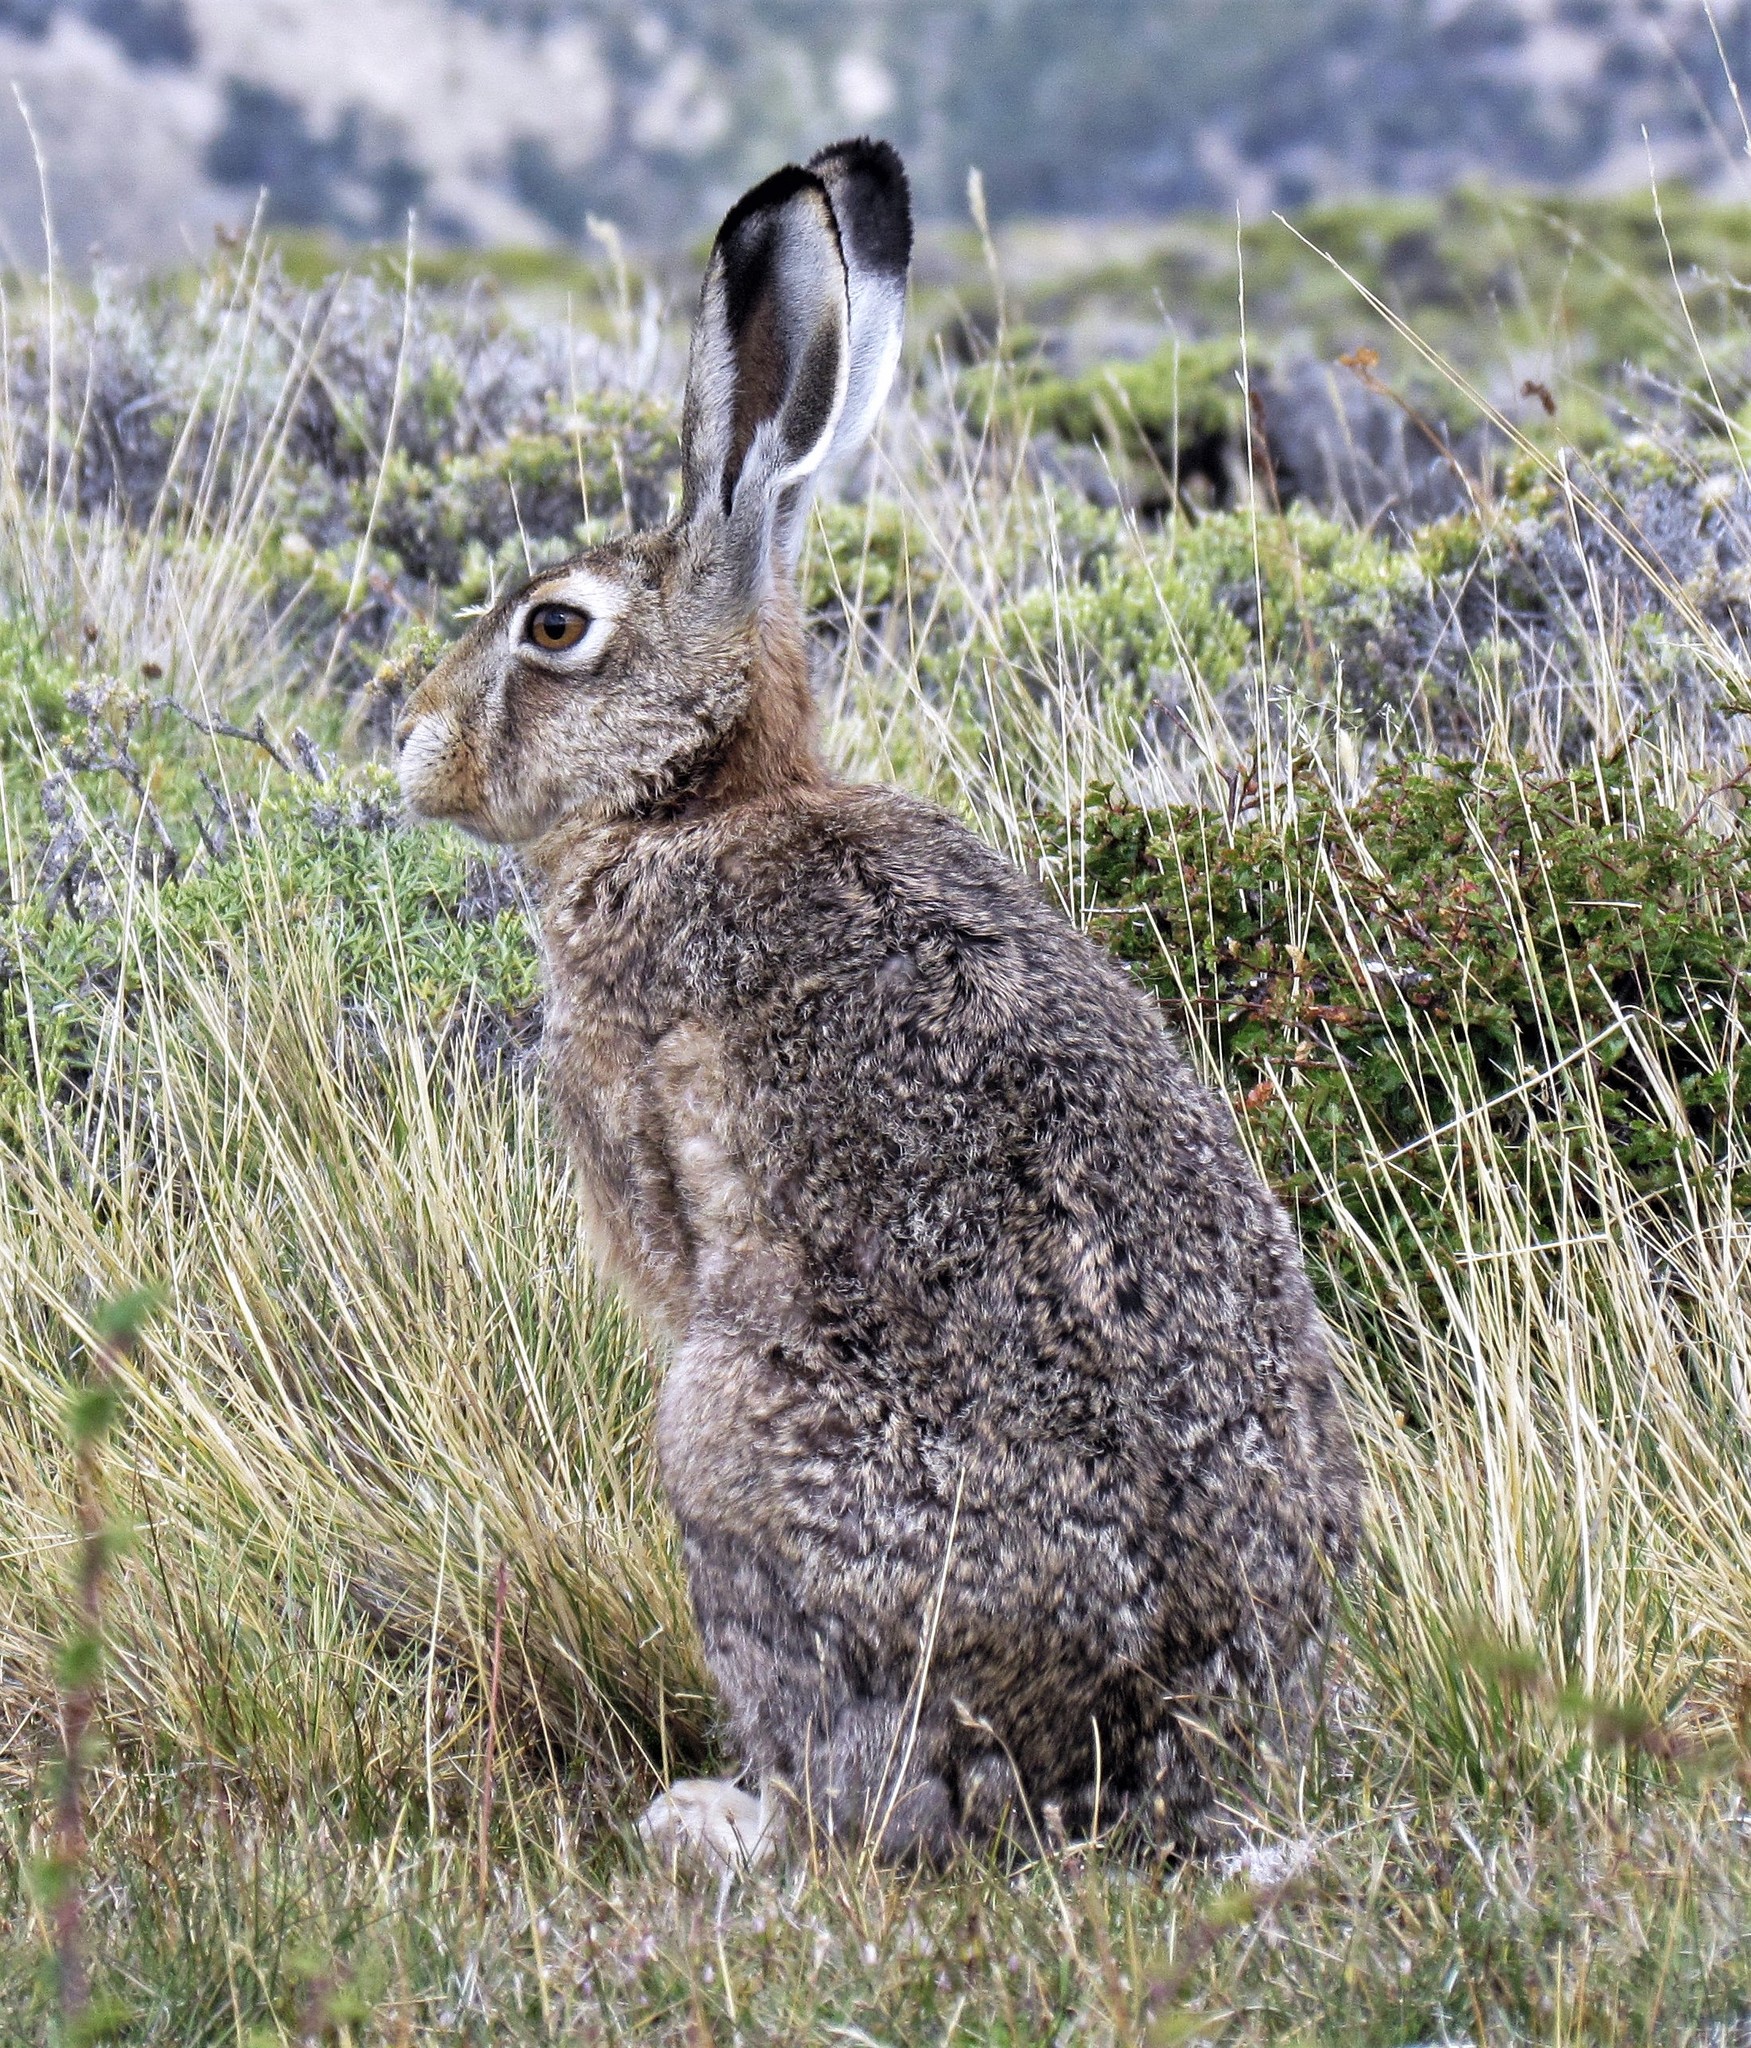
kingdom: Animalia
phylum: Chordata
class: Mammalia
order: Lagomorpha
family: Leporidae
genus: Lepus
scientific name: Lepus europaeus
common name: European hare
